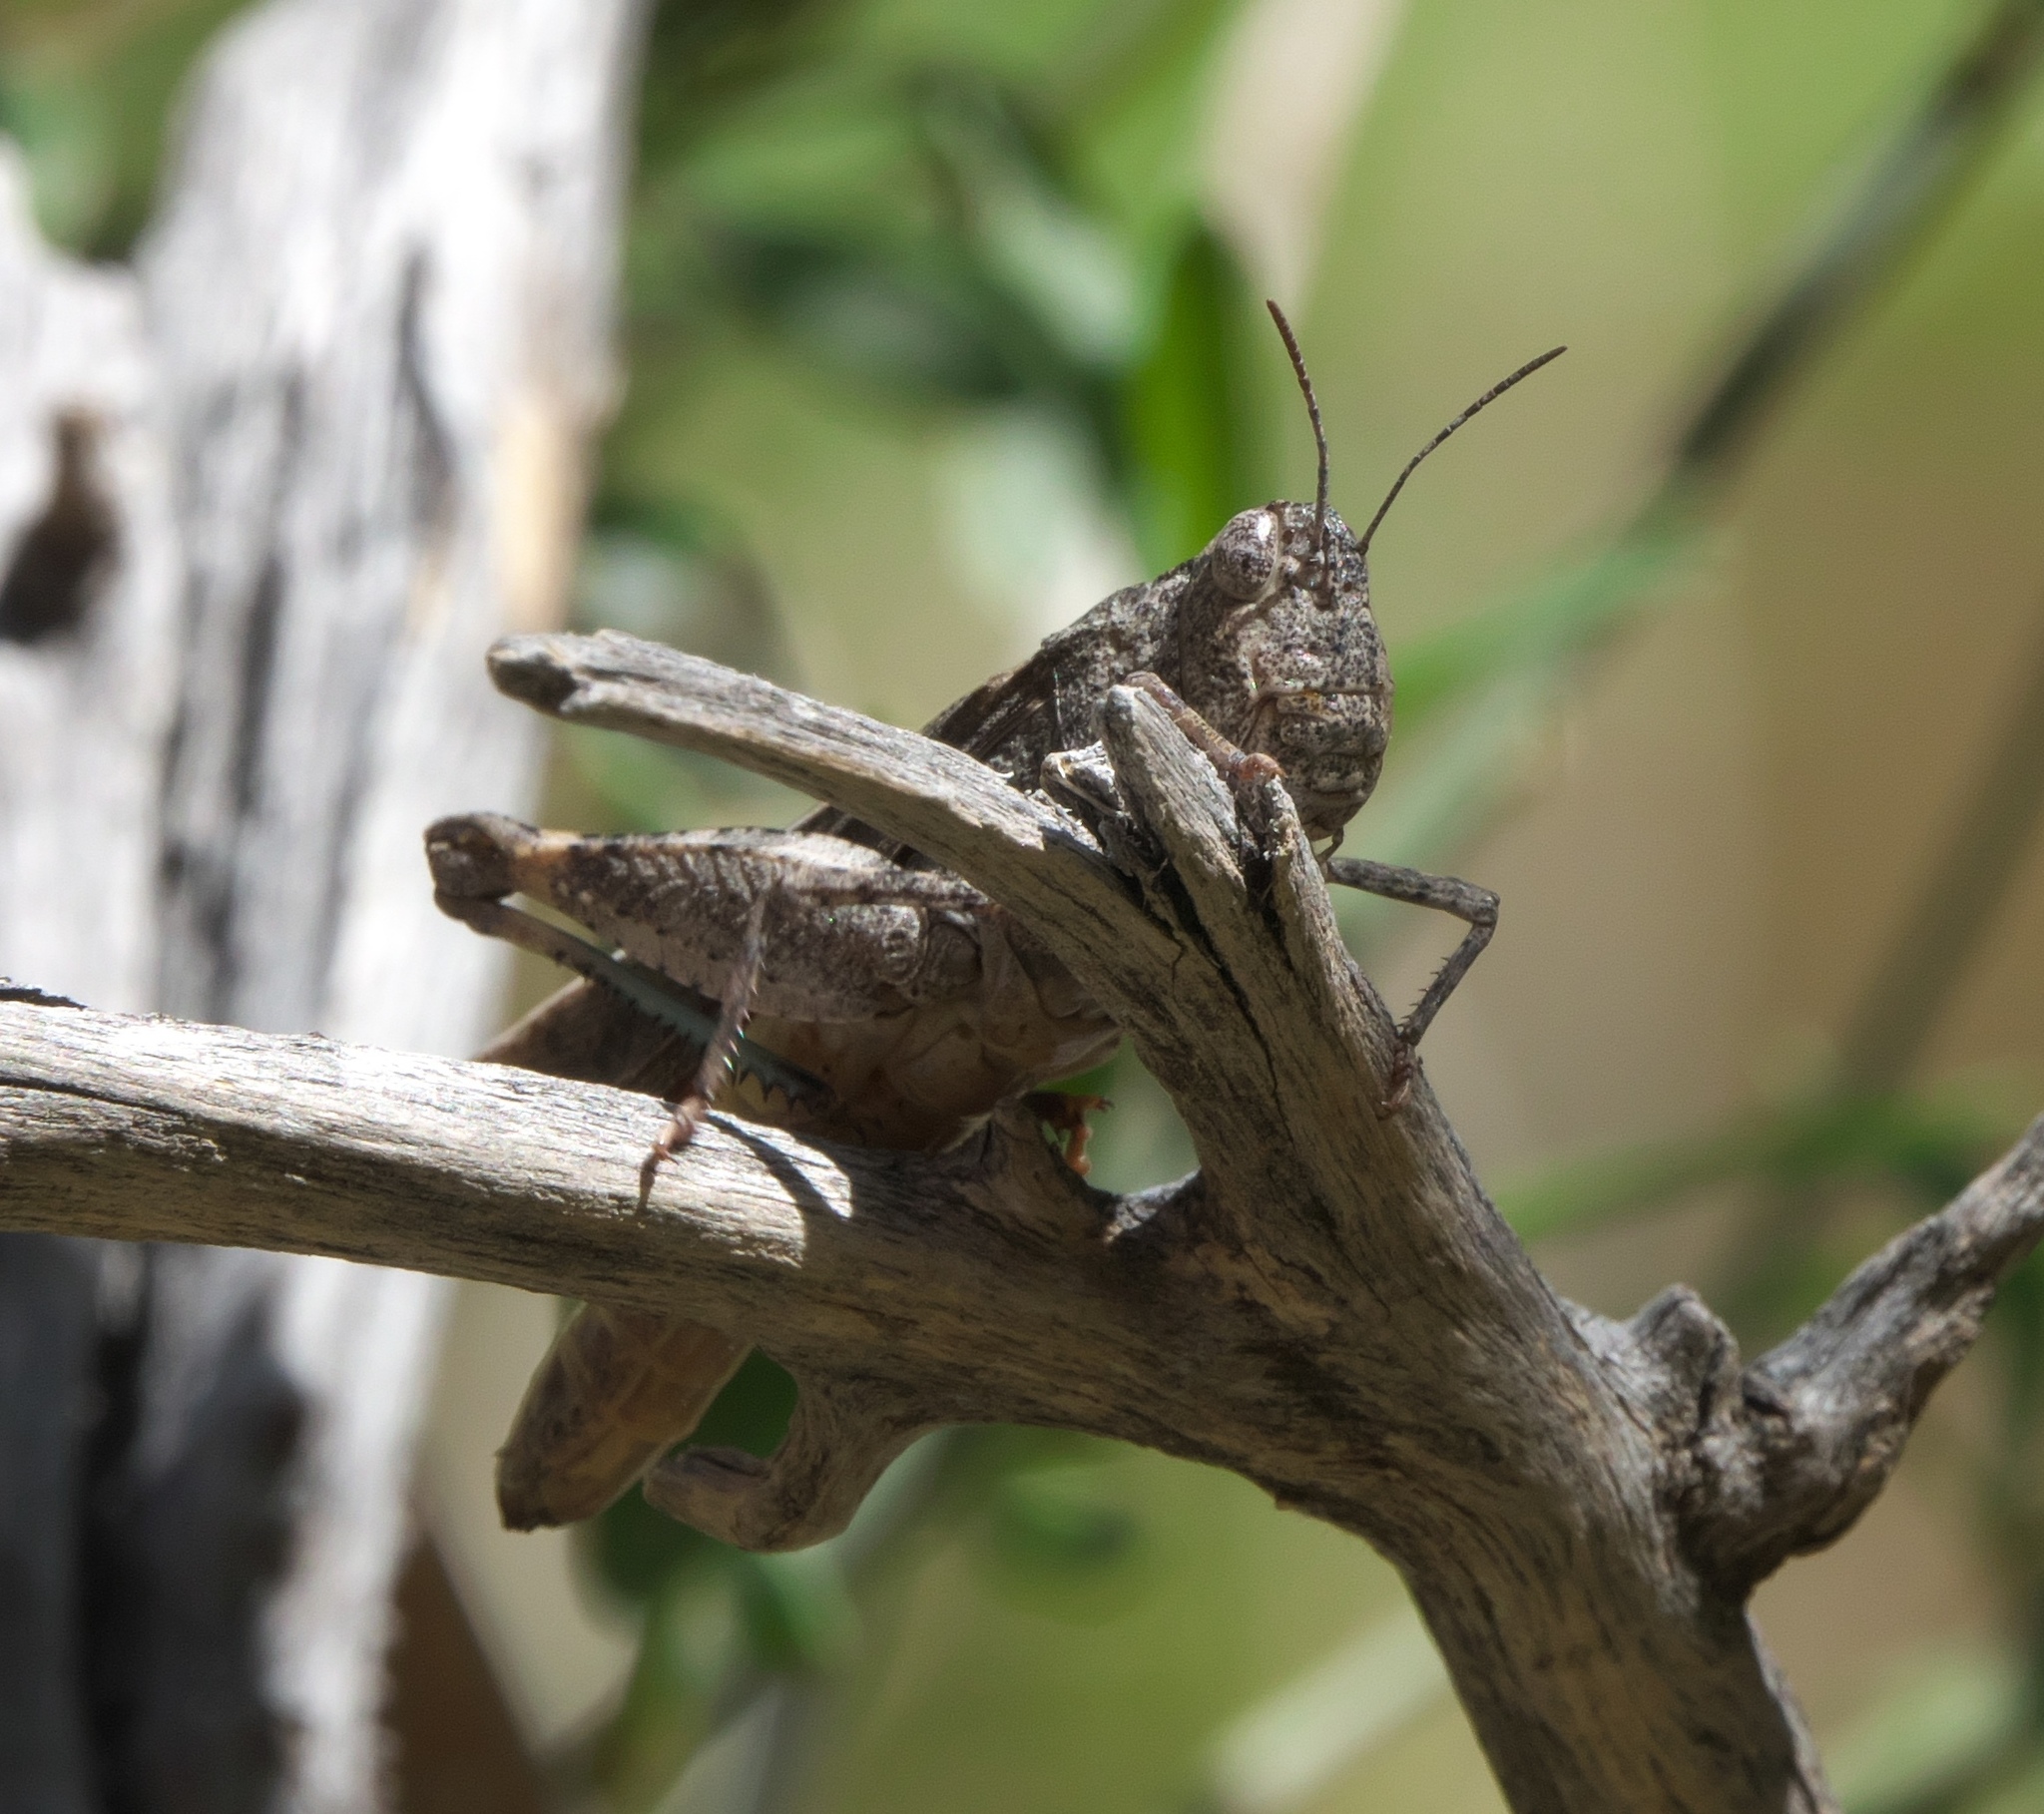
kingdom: Animalia
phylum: Arthropoda
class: Insecta
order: Orthoptera
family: Acrididae
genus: Arphia
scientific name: Arphia conspersa
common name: Speckle-winged rangeland grasshopper
